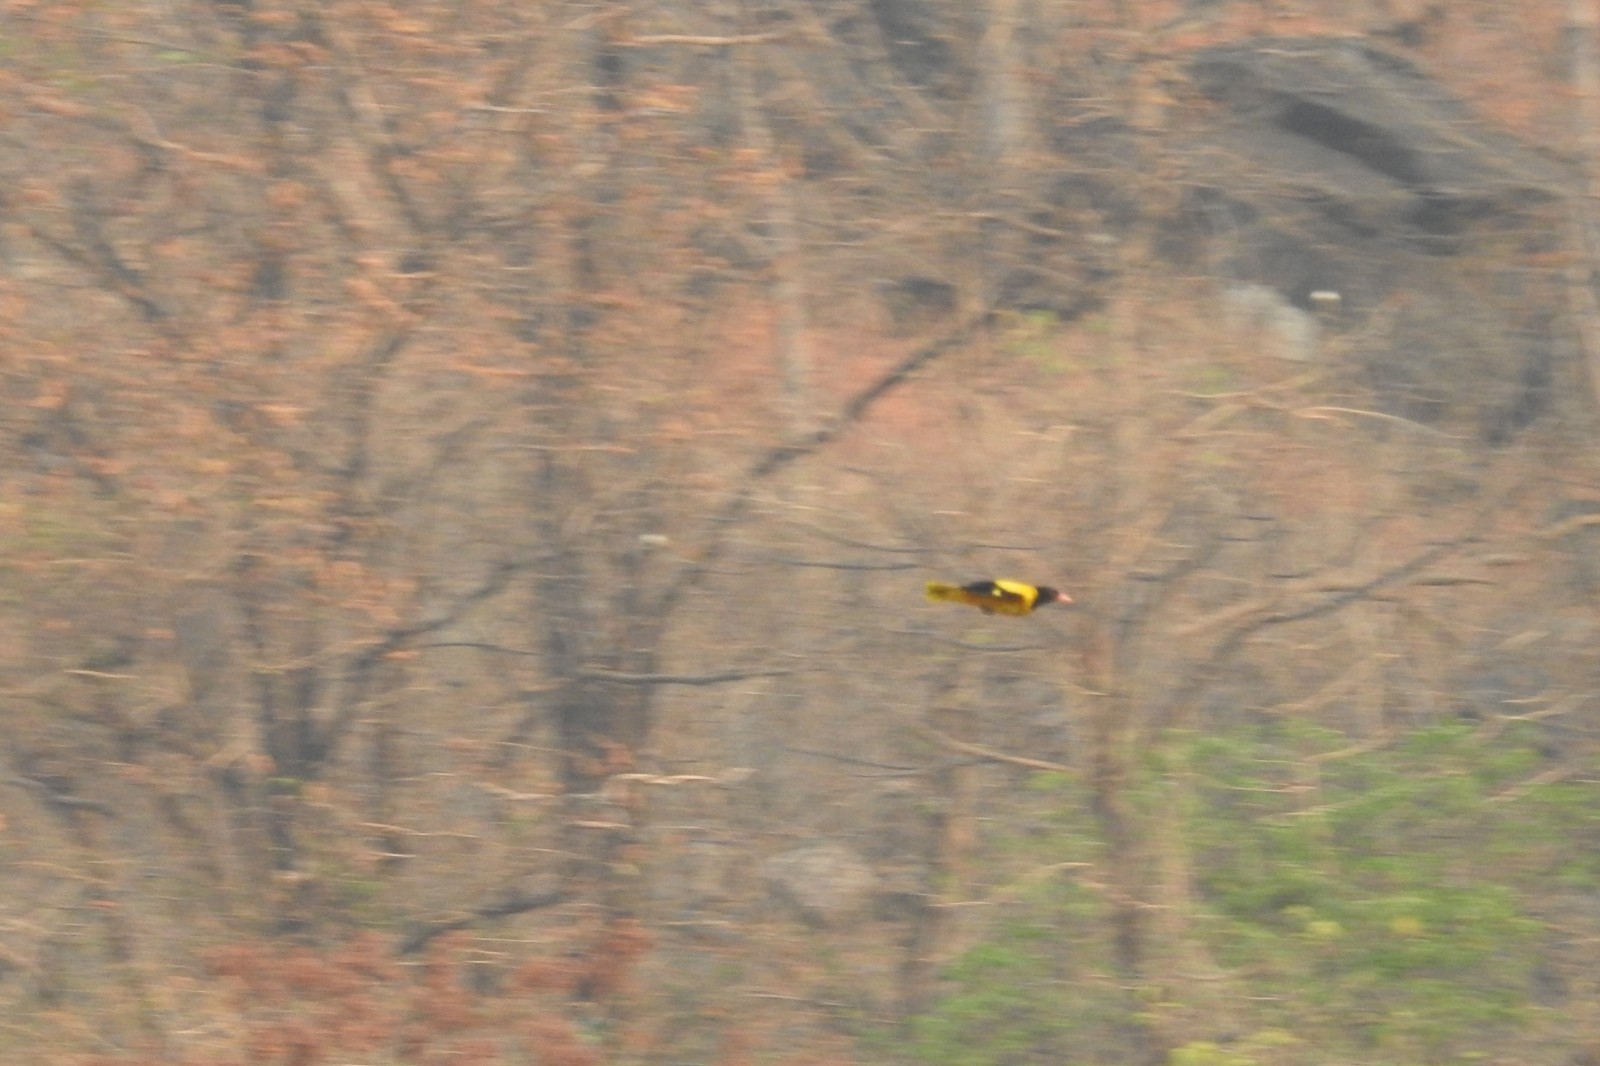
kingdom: Animalia
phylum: Chordata
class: Aves
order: Passeriformes
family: Oriolidae
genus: Oriolus
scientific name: Oriolus xanthornus
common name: Black-hooded oriole
